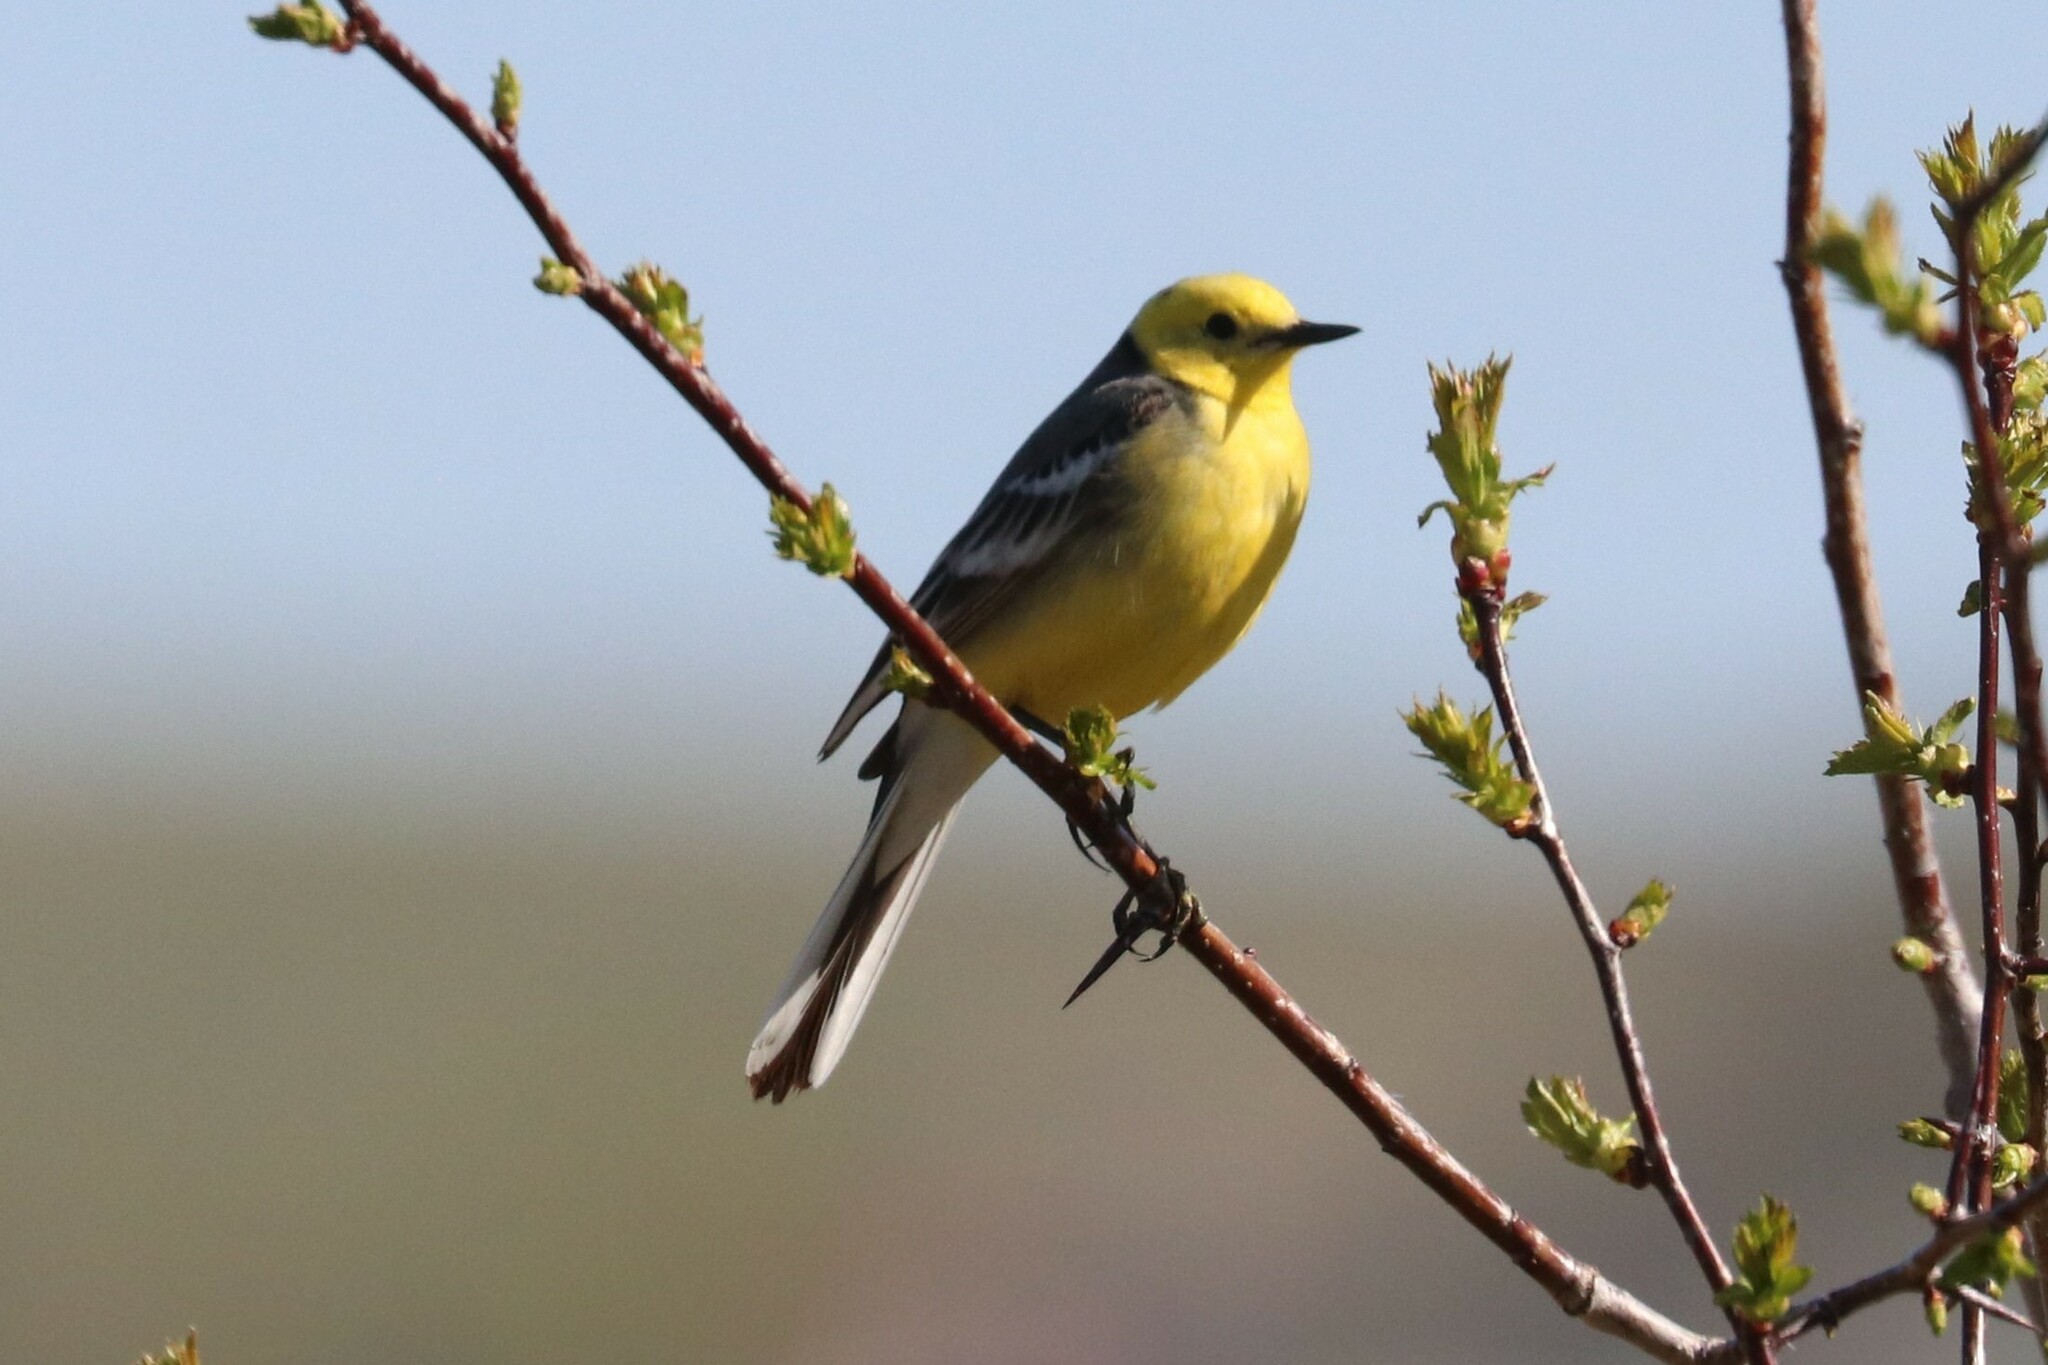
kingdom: Animalia
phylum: Chordata
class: Aves
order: Passeriformes
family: Motacillidae
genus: Motacilla
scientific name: Motacilla citreola
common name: Citrine wagtail
